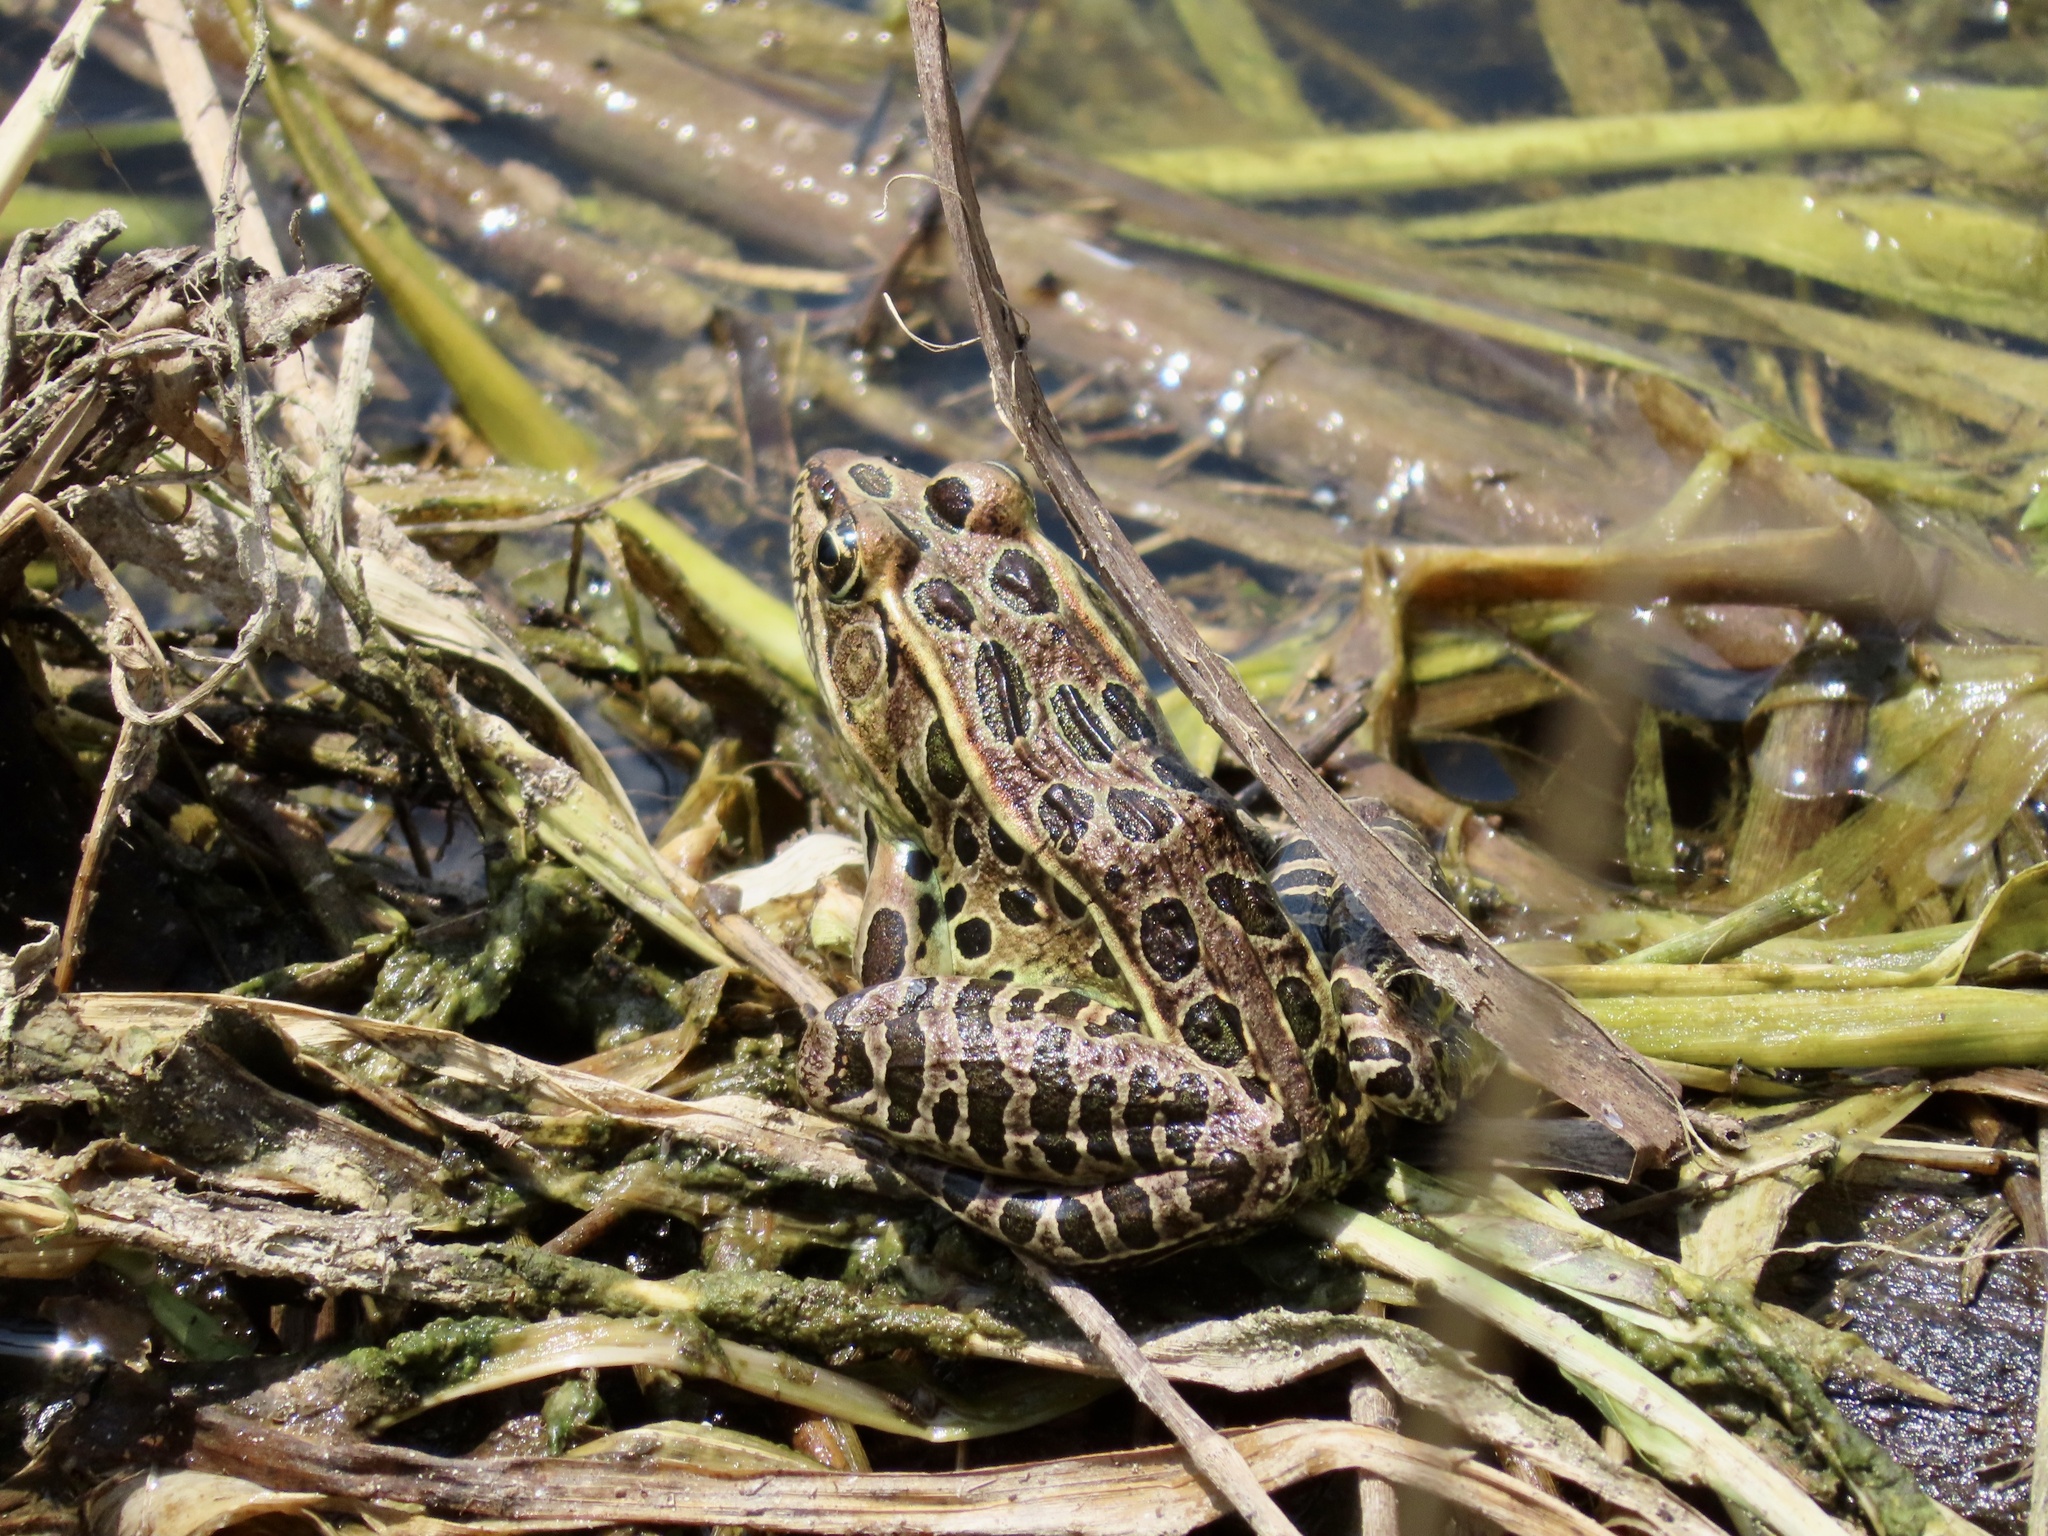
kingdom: Animalia
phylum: Chordata
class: Amphibia
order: Anura
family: Ranidae
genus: Lithobates
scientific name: Lithobates pipiens
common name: Northern leopard frog
